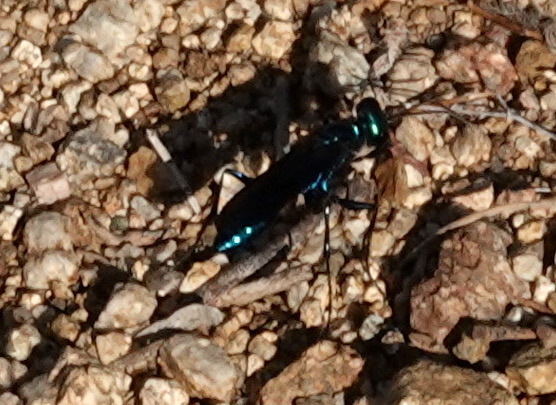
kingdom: Animalia
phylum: Arthropoda
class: Insecta
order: Hymenoptera
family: Sphecidae
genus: Chlorion
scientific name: Chlorion aerarium
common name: Steel-blue cricket hunter
